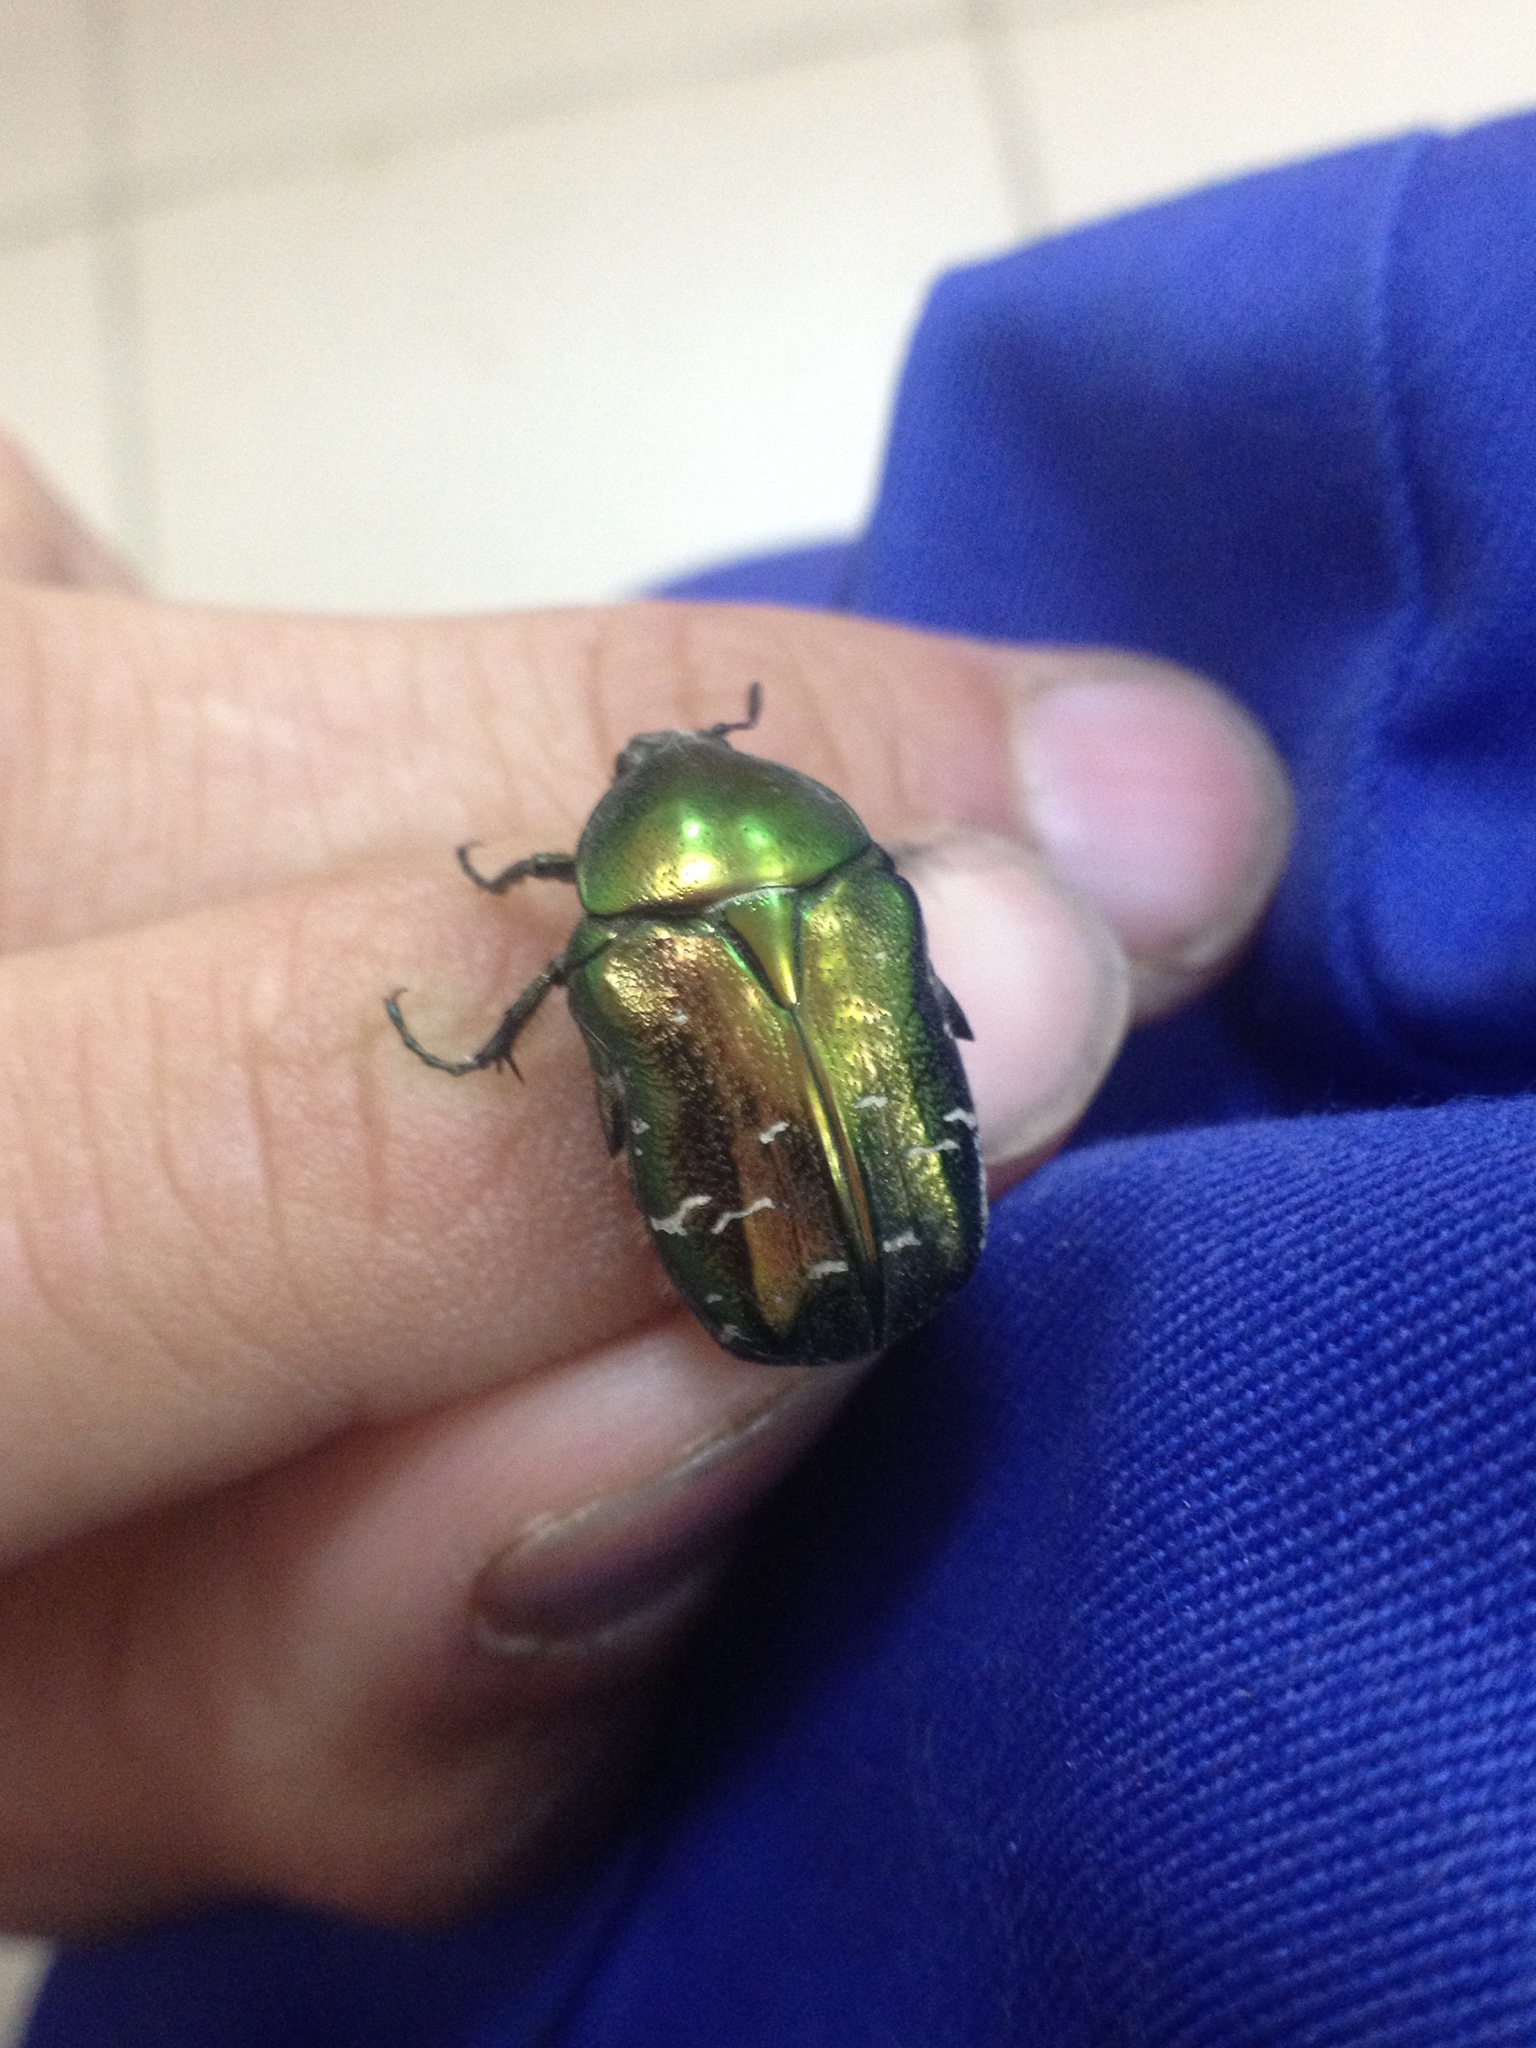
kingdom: Animalia
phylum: Arthropoda
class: Insecta
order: Coleoptera
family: Scarabaeidae
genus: Cetonia
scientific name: Cetonia aurata
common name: Rose chafer
